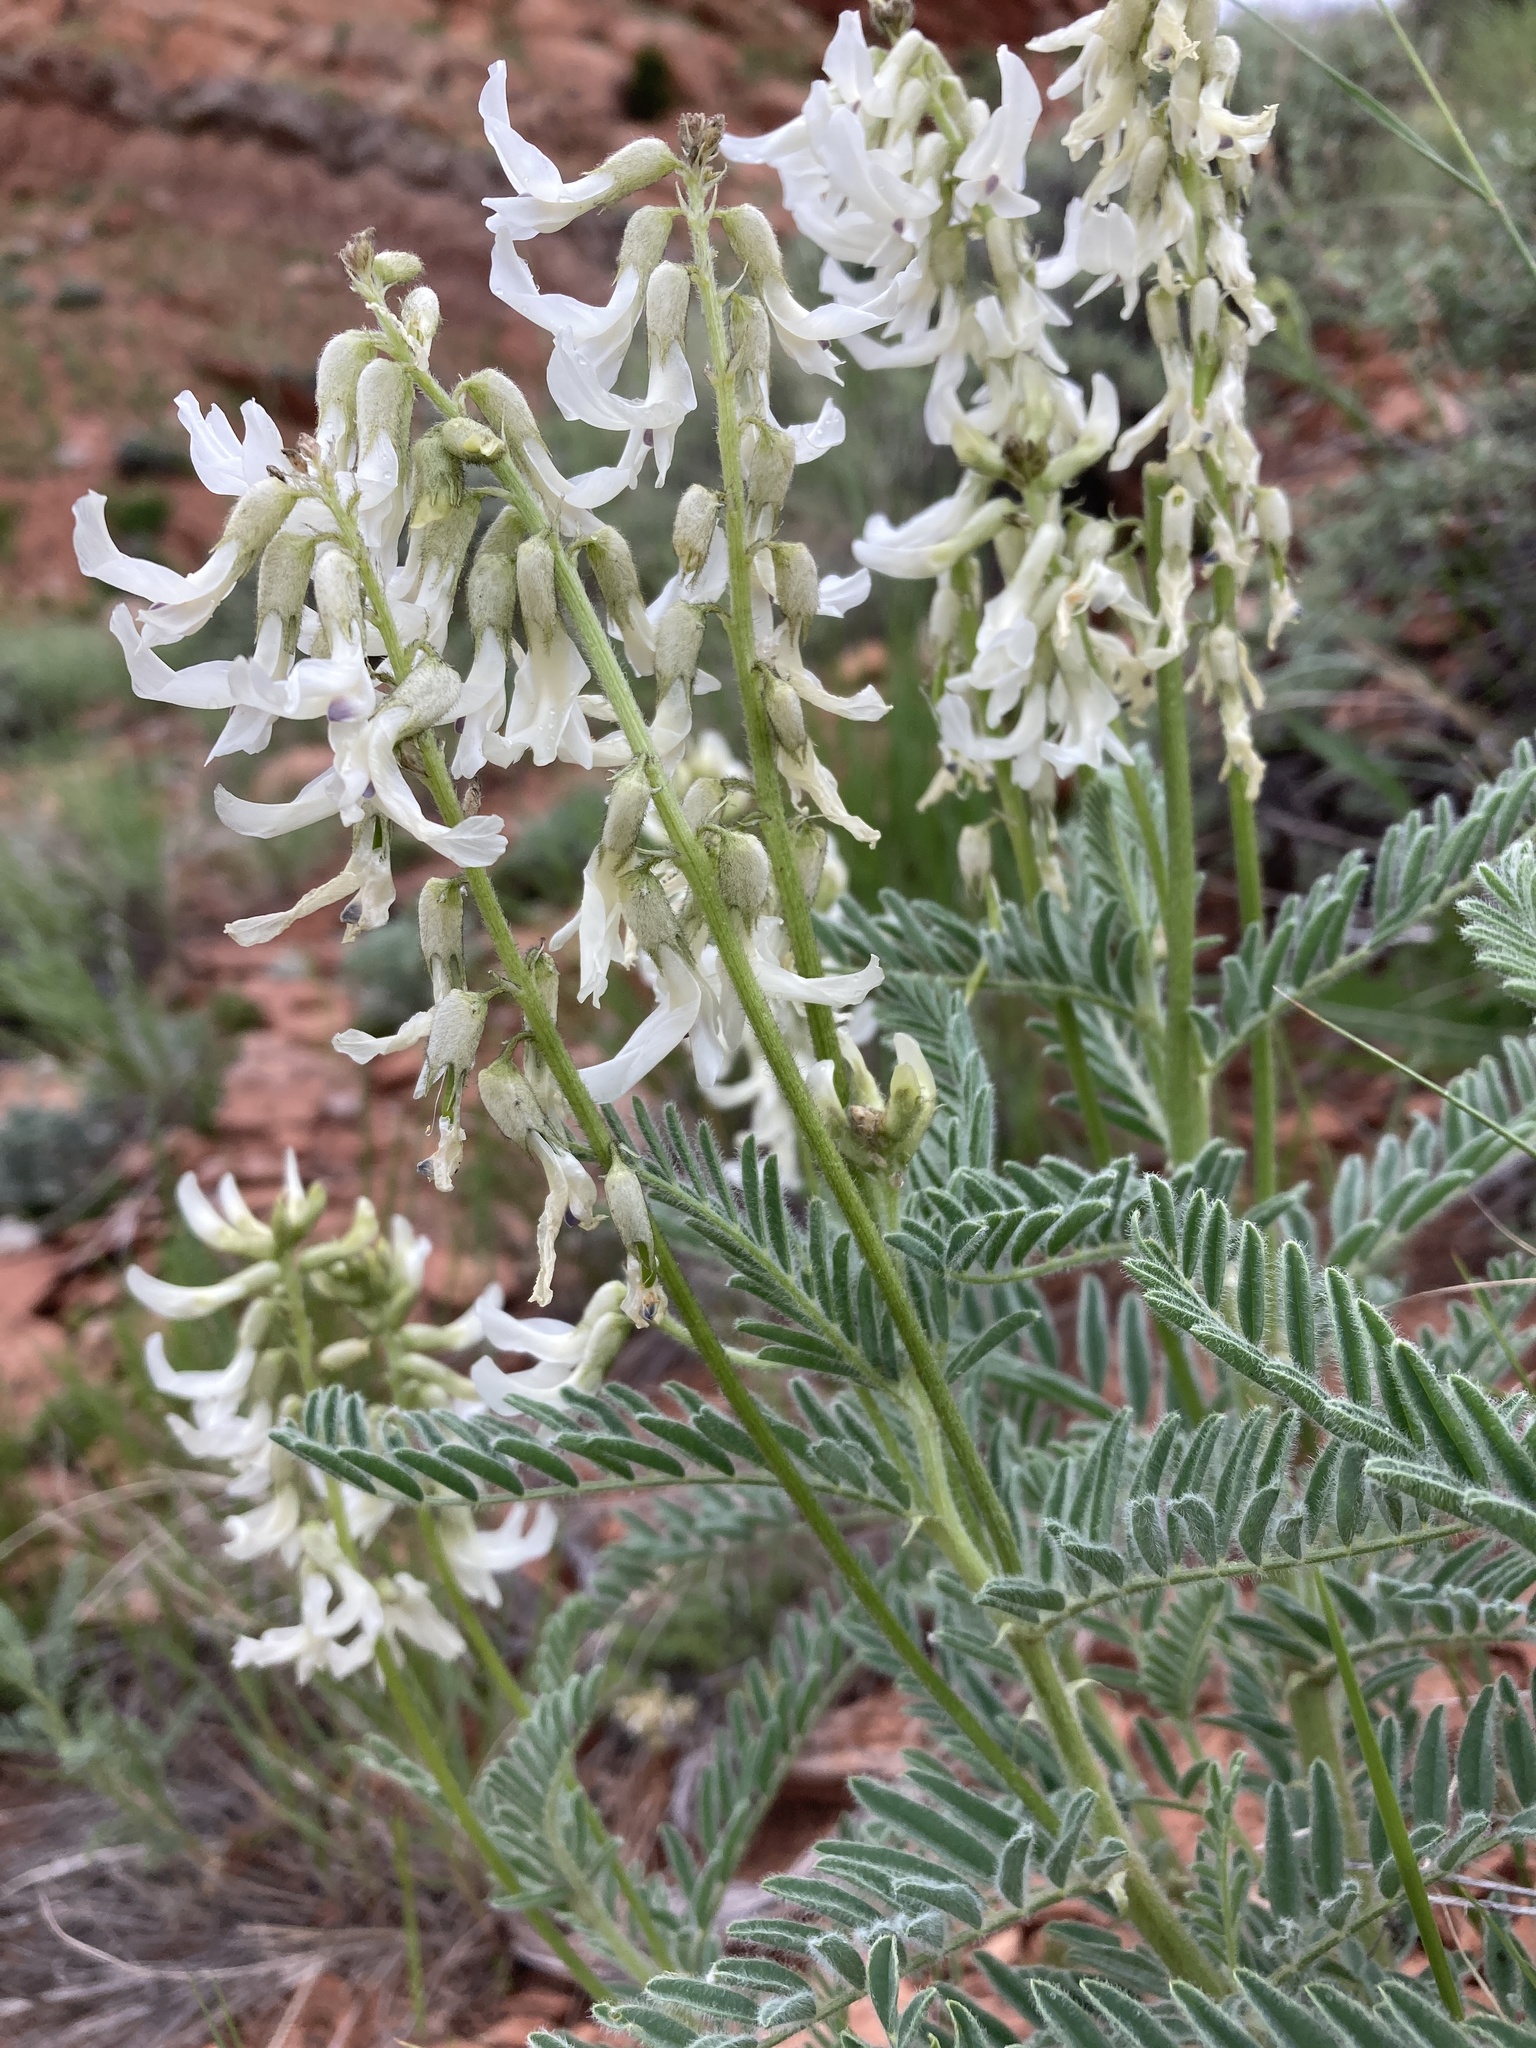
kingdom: Plantae
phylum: Tracheophyta
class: Magnoliopsida
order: Fabales
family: Fabaceae
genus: Astragalus
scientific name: Astragalus drummondii
